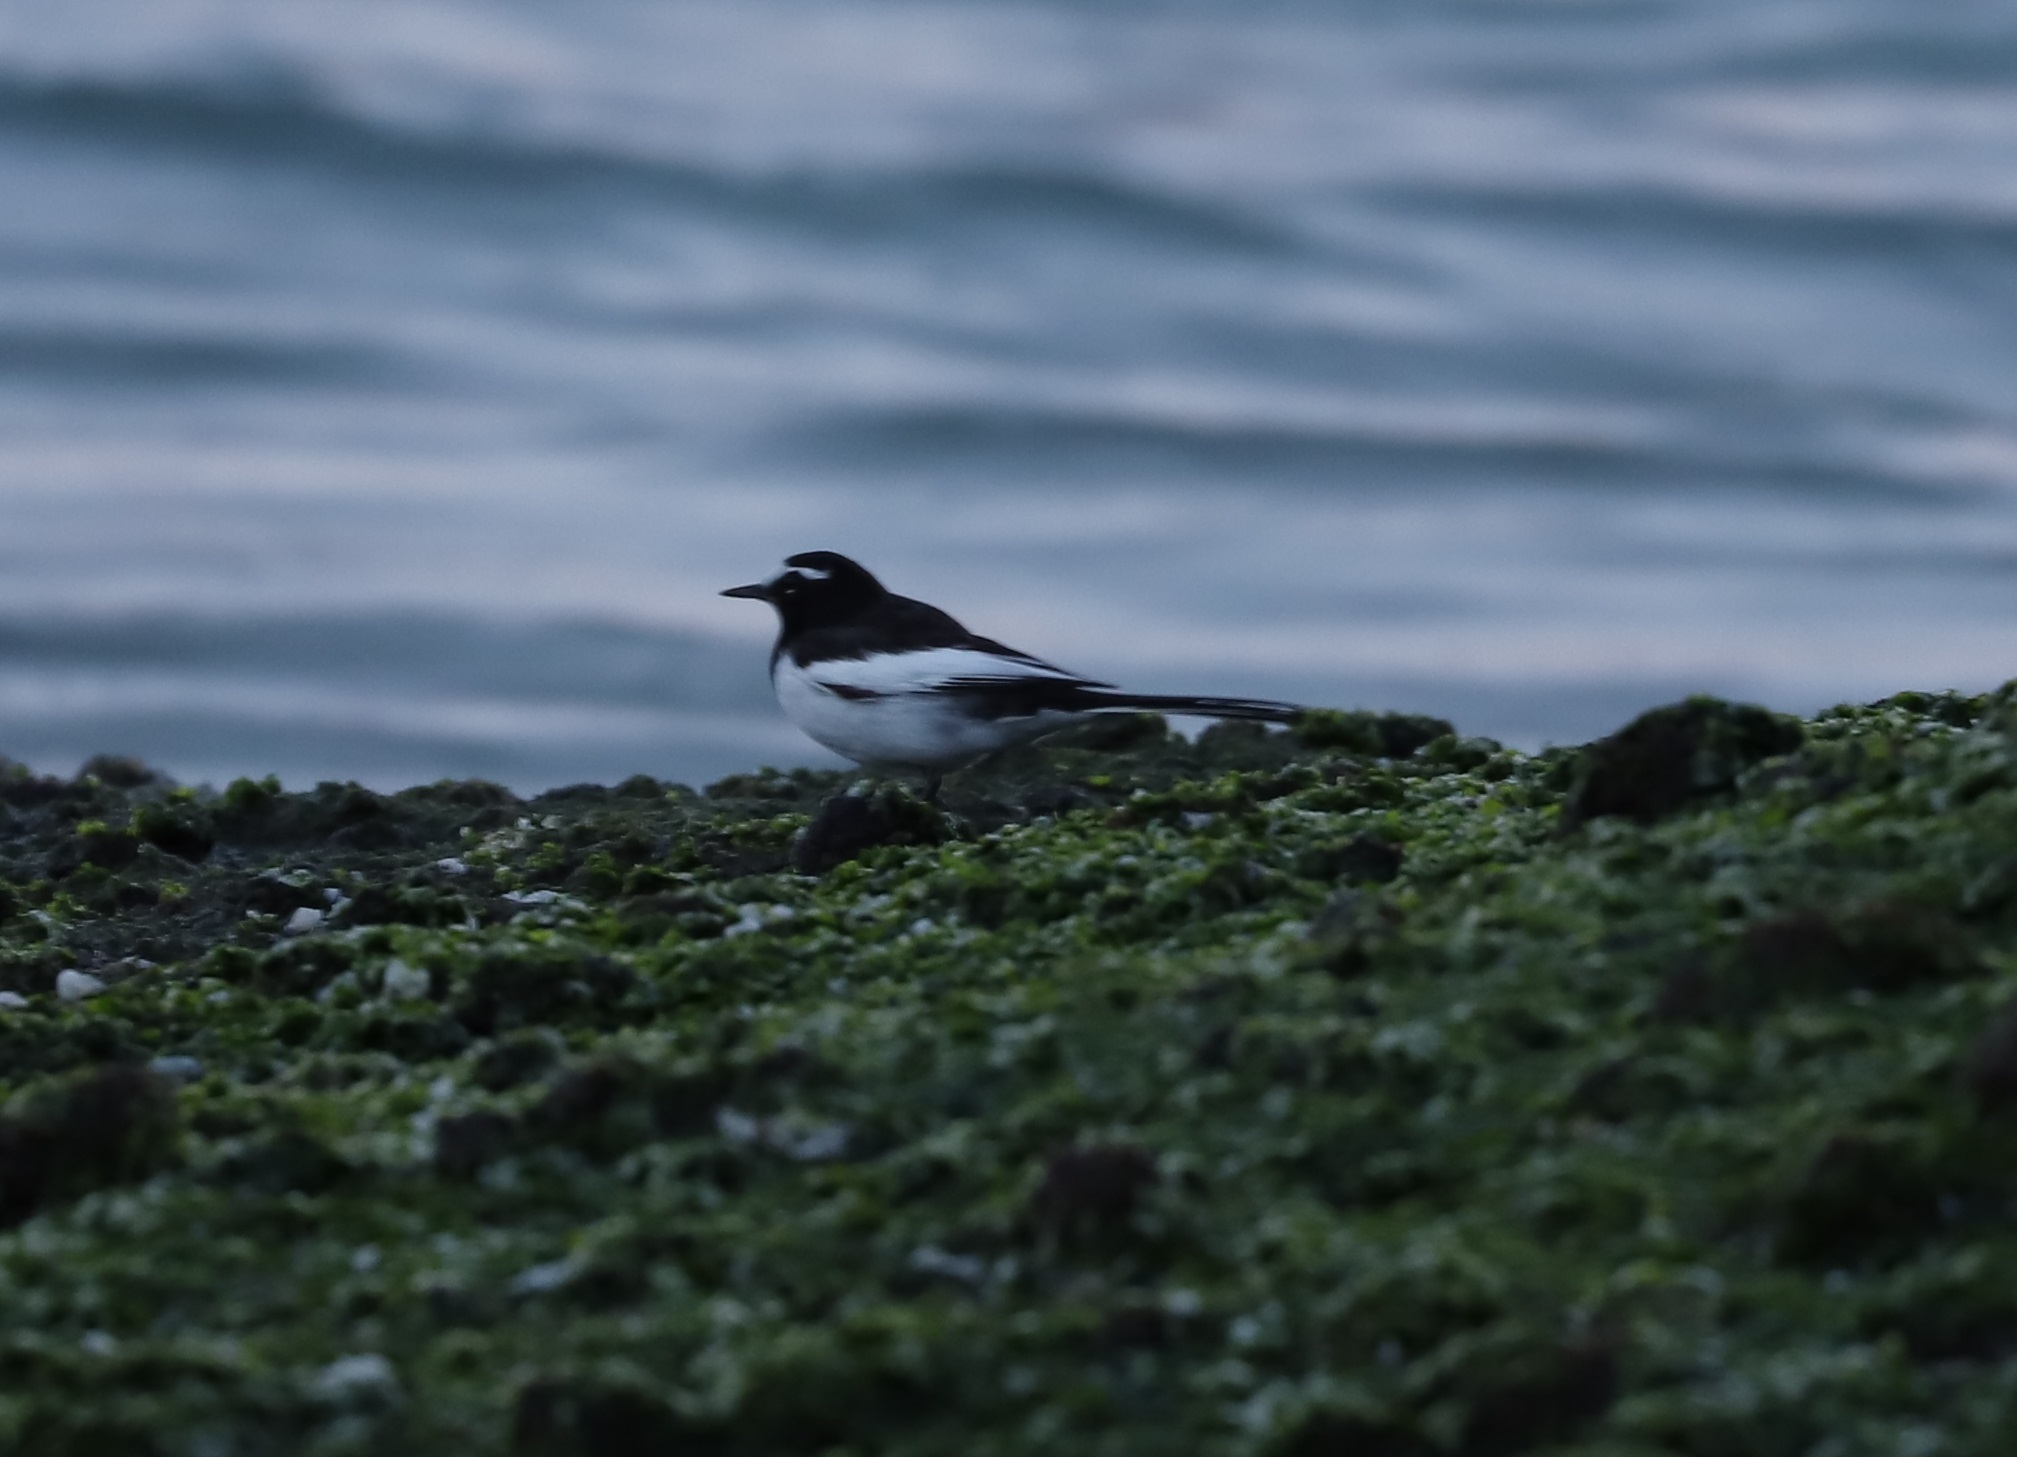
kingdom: Animalia
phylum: Chordata
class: Aves
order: Passeriformes
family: Motacillidae
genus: Motacilla
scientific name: Motacilla grandis
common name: Japanese wagtail
